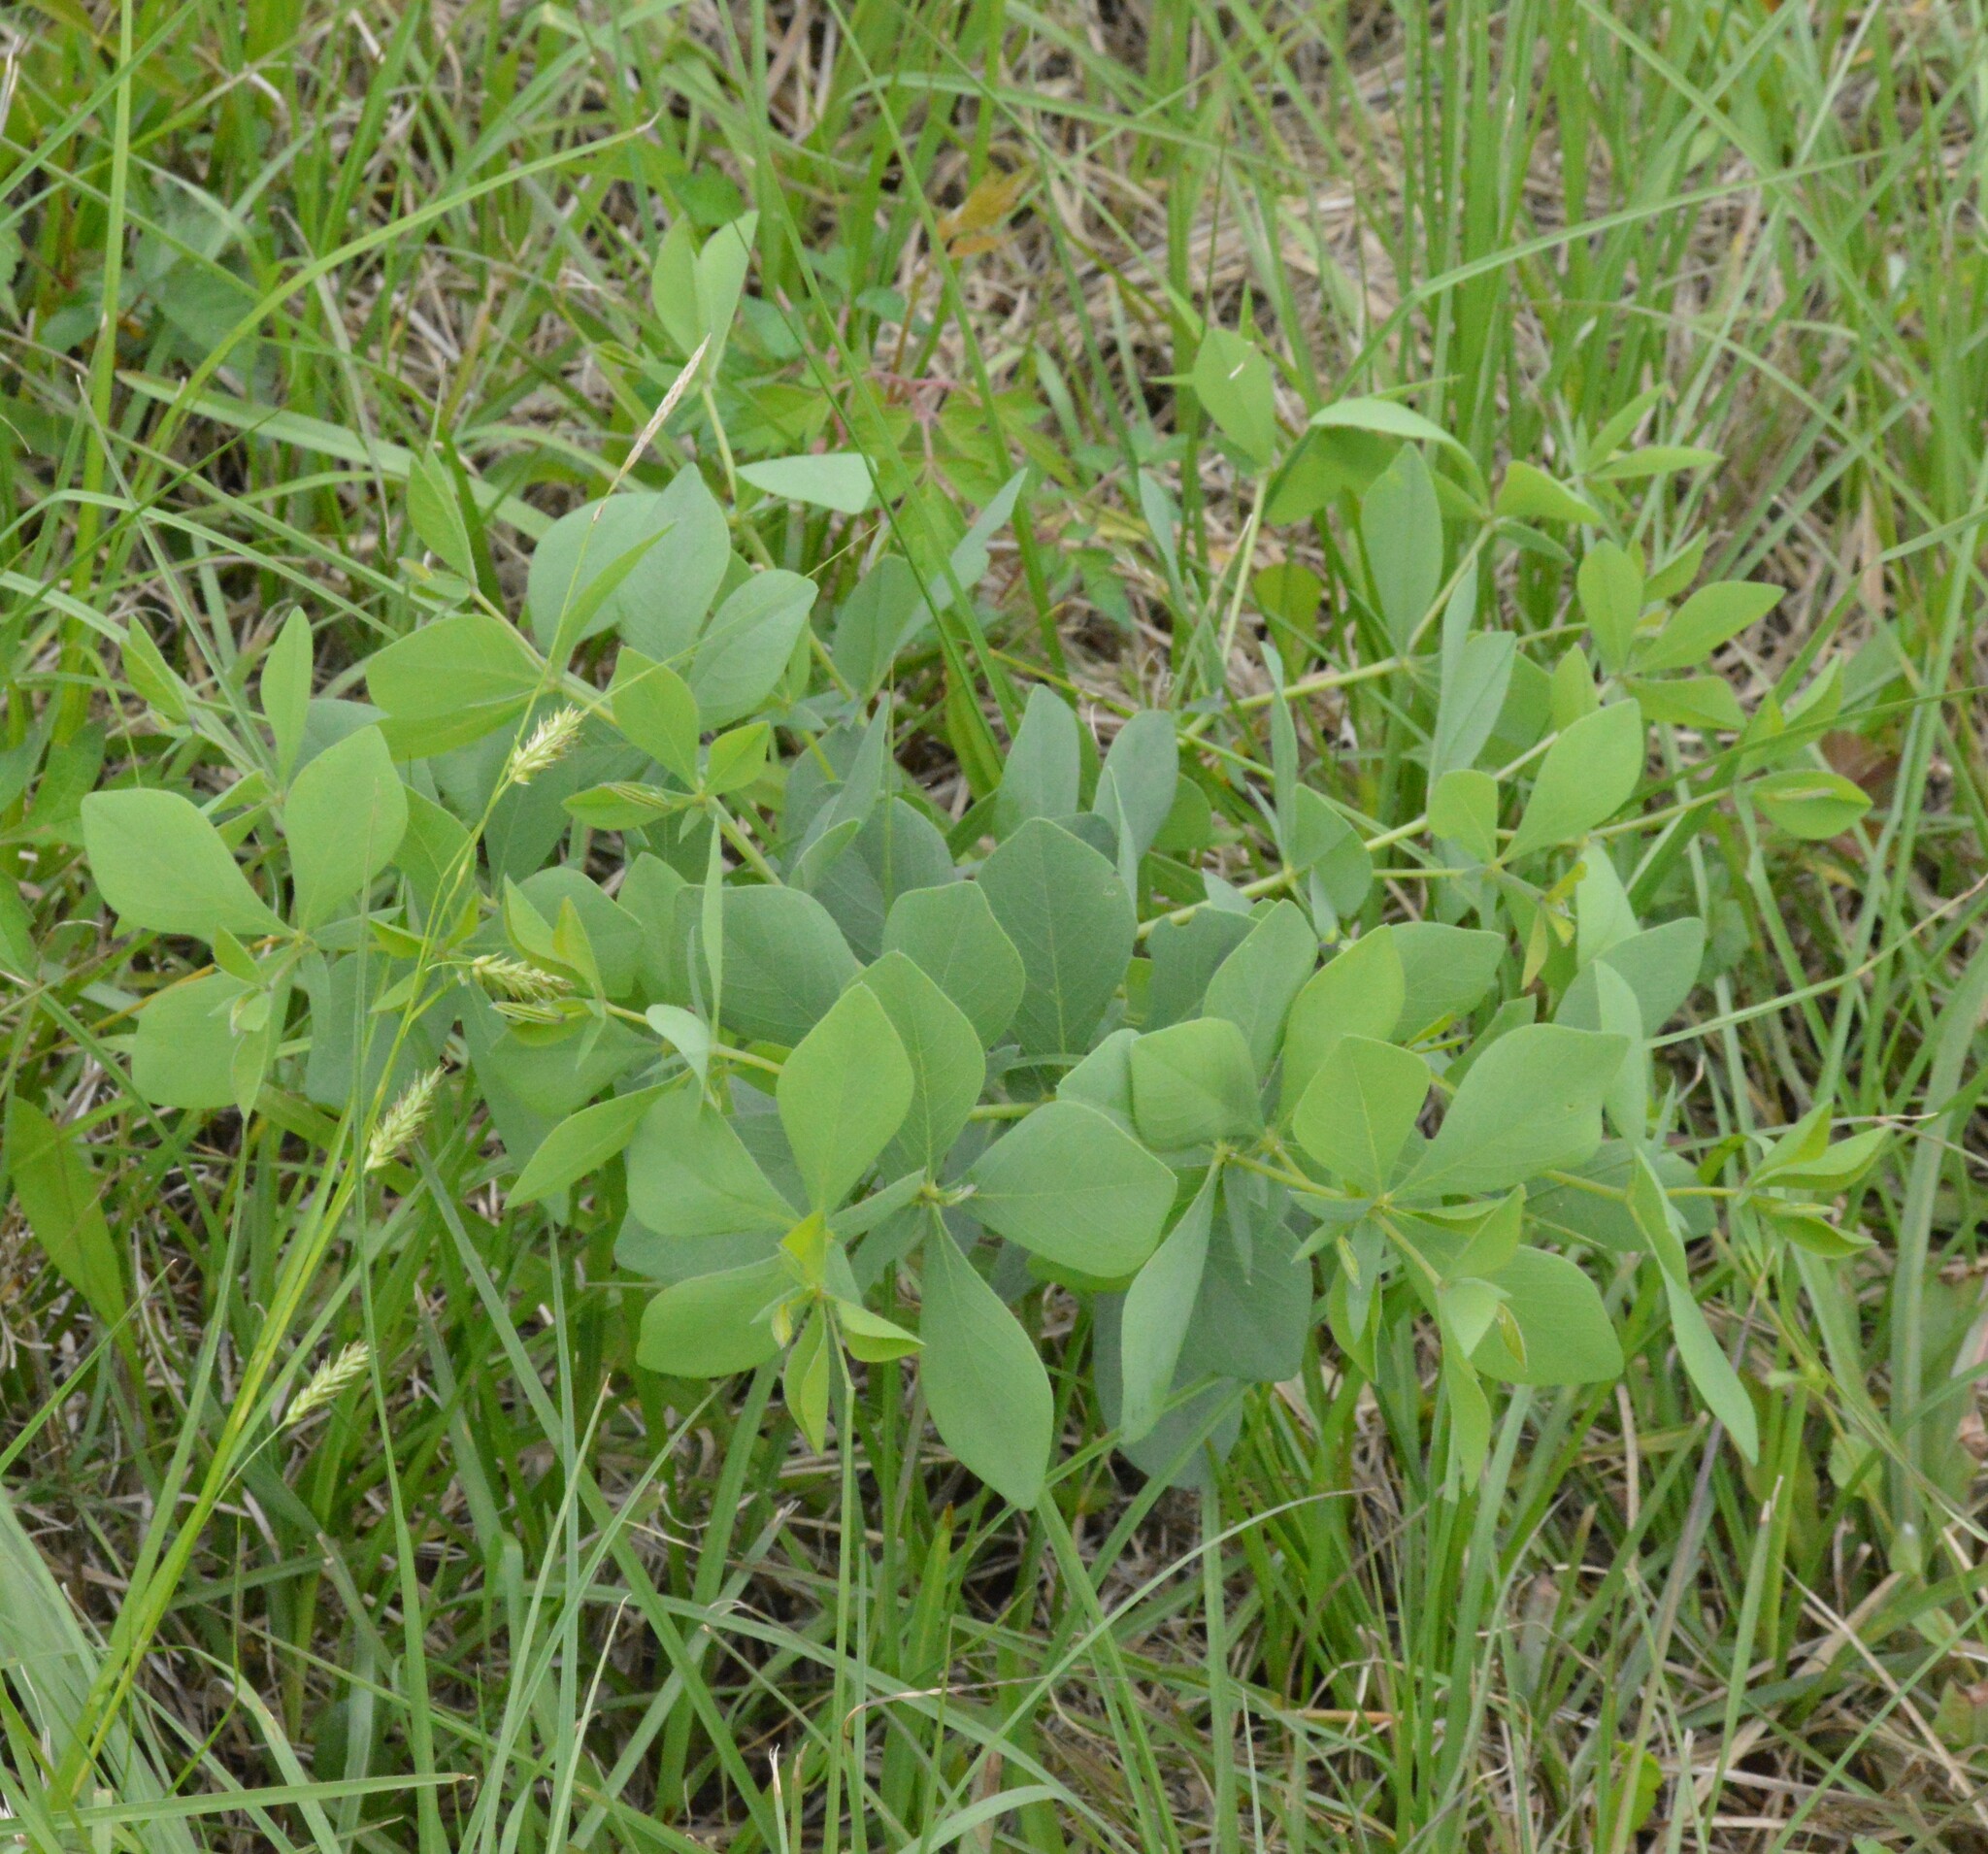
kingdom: Plantae
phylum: Tracheophyta
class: Magnoliopsida
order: Fabales
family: Fabaceae
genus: Baptisia
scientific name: Baptisia bracteata
